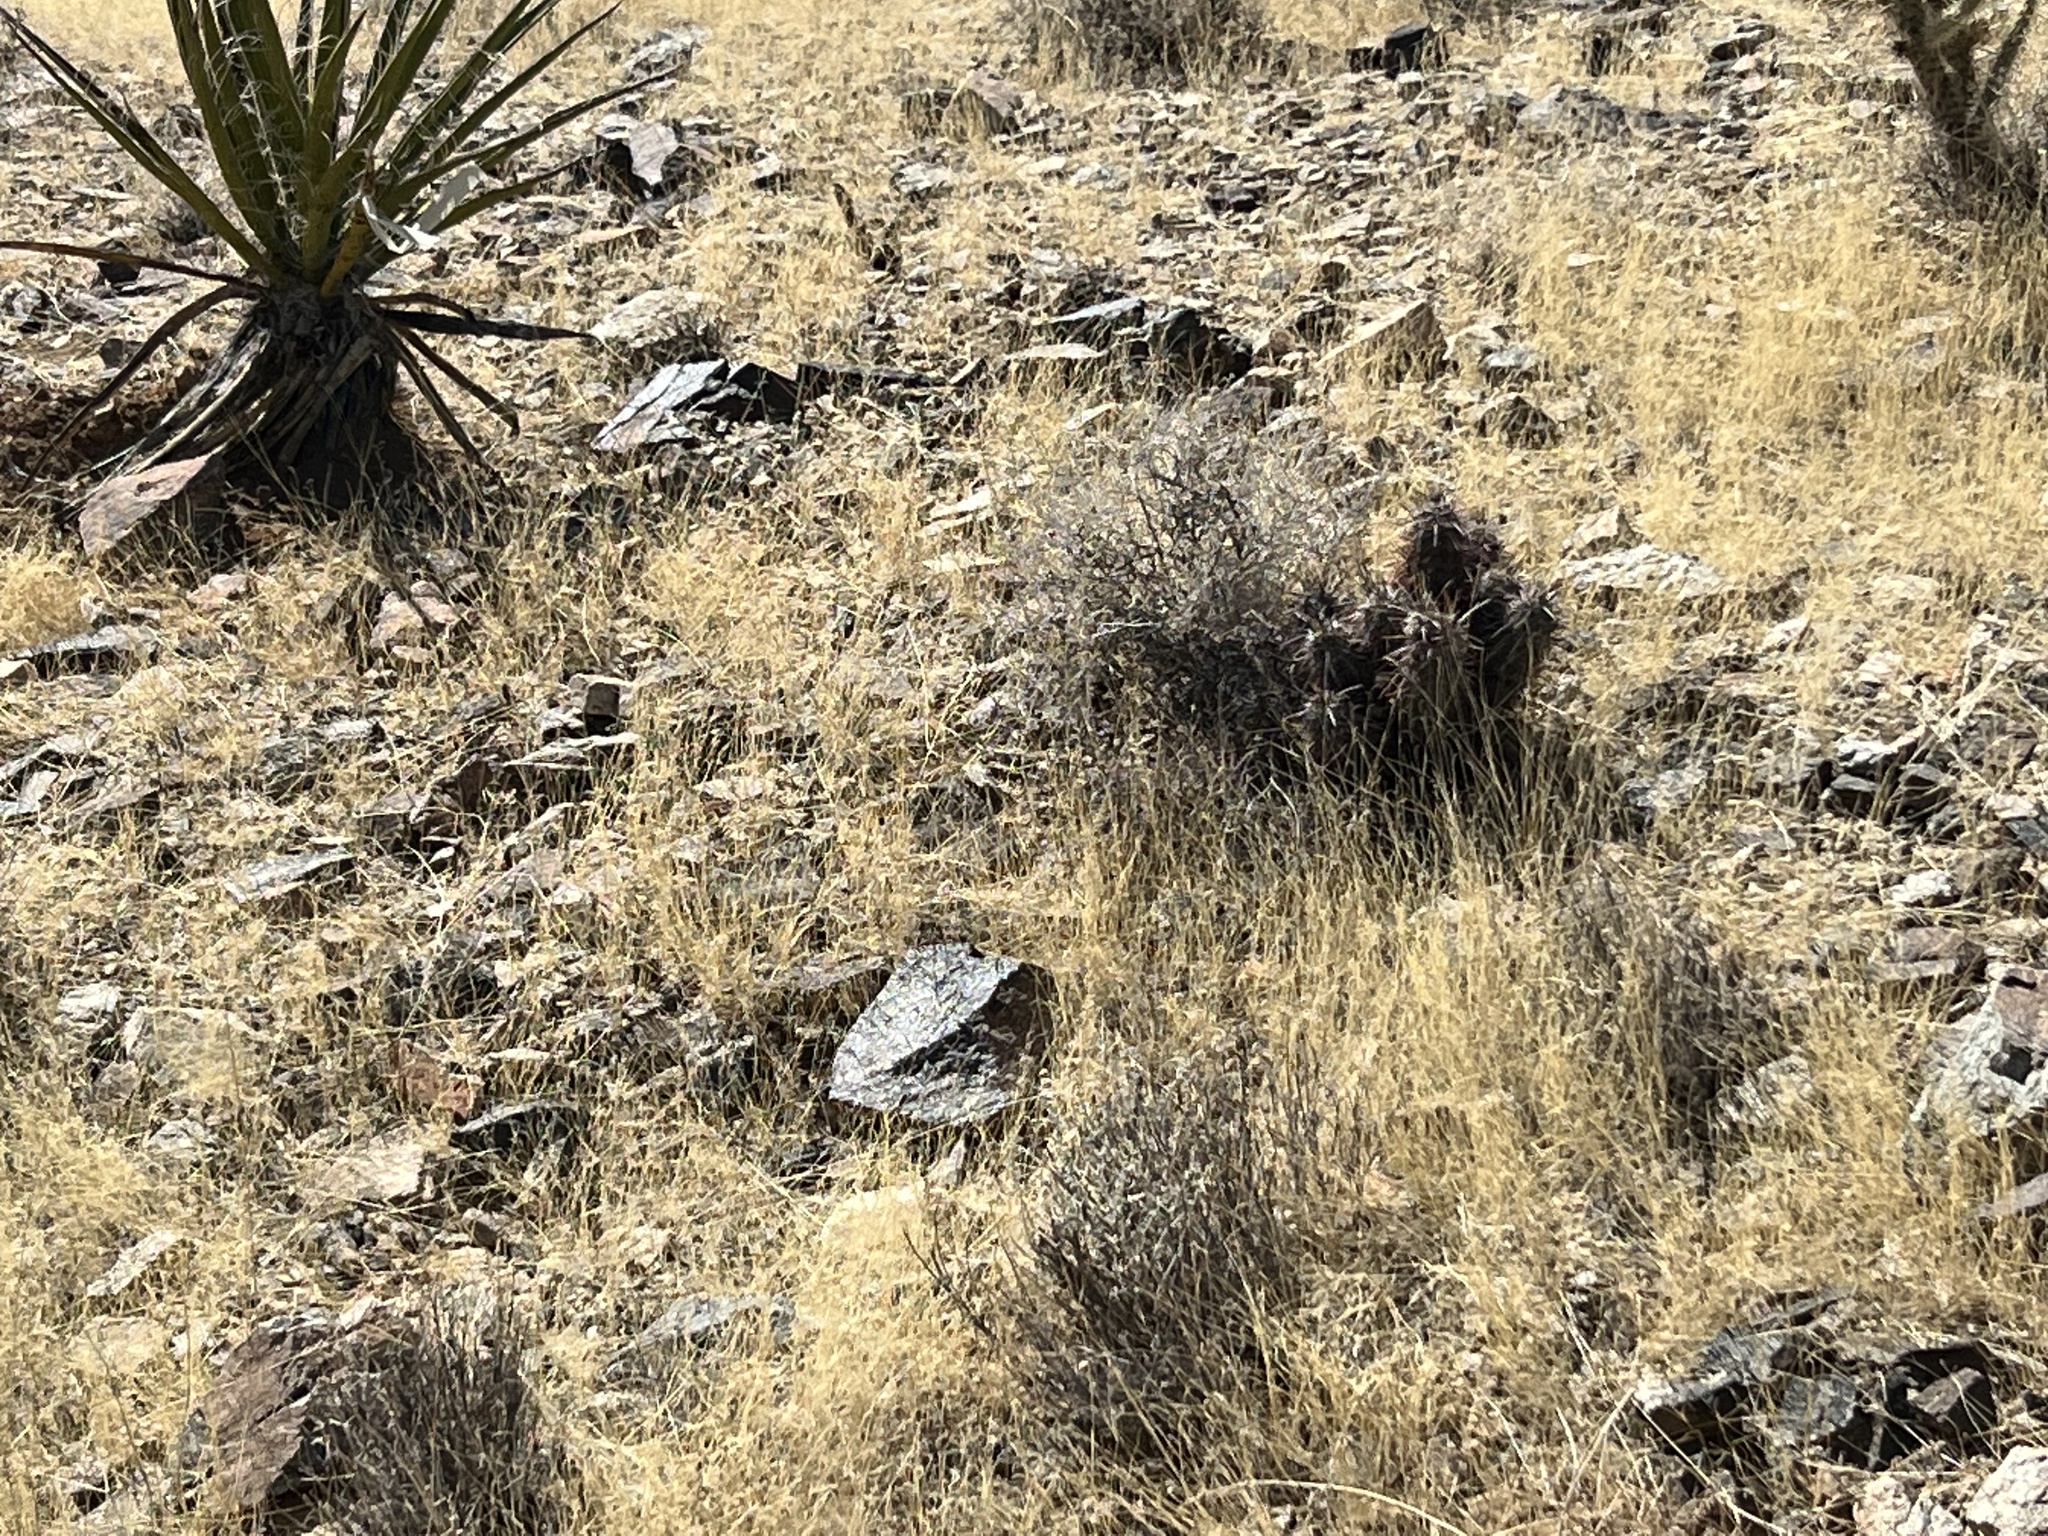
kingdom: Plantae
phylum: Tracheophyta
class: Magnoliopsida
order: Caryophyllales
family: Cactaceae
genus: Echinocereus
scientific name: Echinocereus engelmannii
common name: Engelmann's hedgehog cactus
